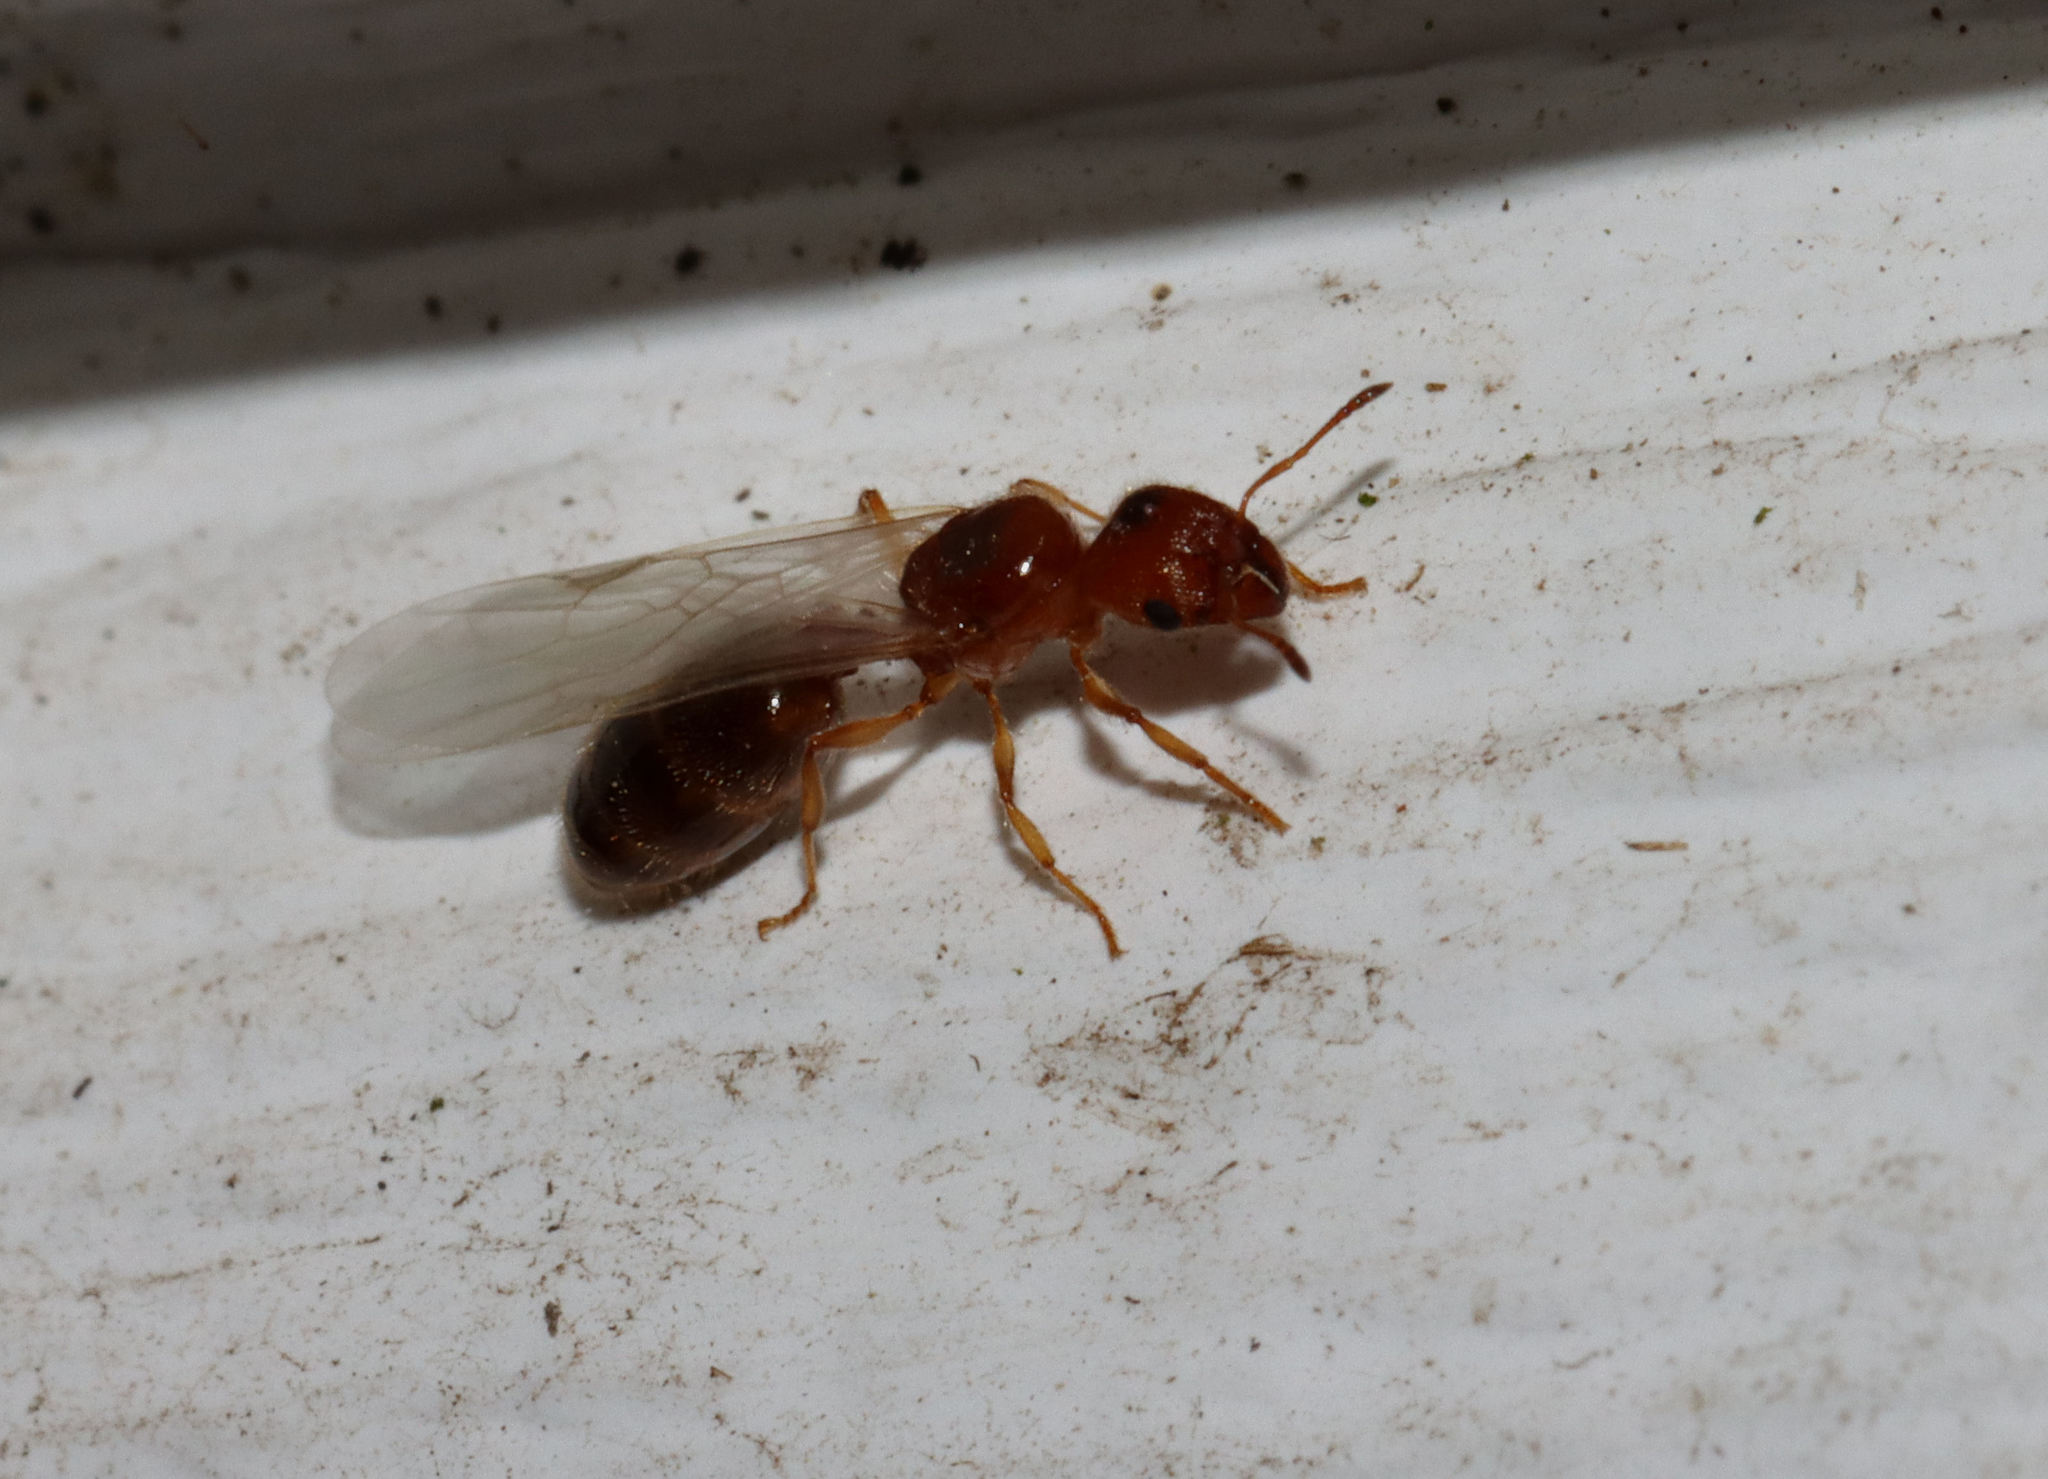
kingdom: Animalia
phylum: Arthropoda
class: Insecta
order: Hymenoptera
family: Formicidae
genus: Pheidole
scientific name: Pheidole bicarinata
